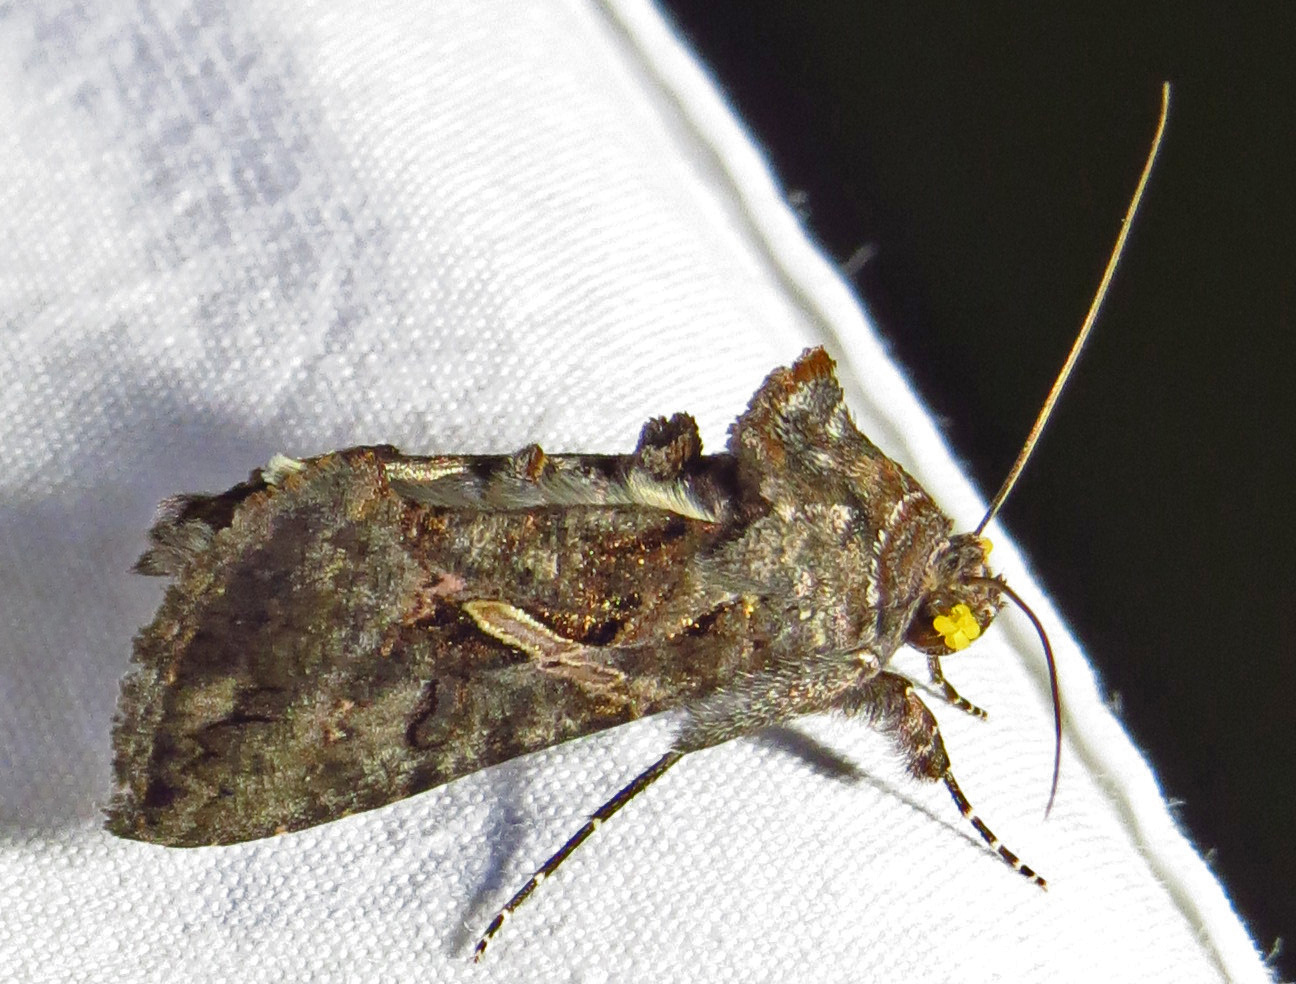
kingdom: Animalia
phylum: Arthropoda
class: Insecta
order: Lepidoptera
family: Noctuidae
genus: Ctenoplusia
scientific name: Ctenoplusia oxygramma
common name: Sharp-stigma looper moth
